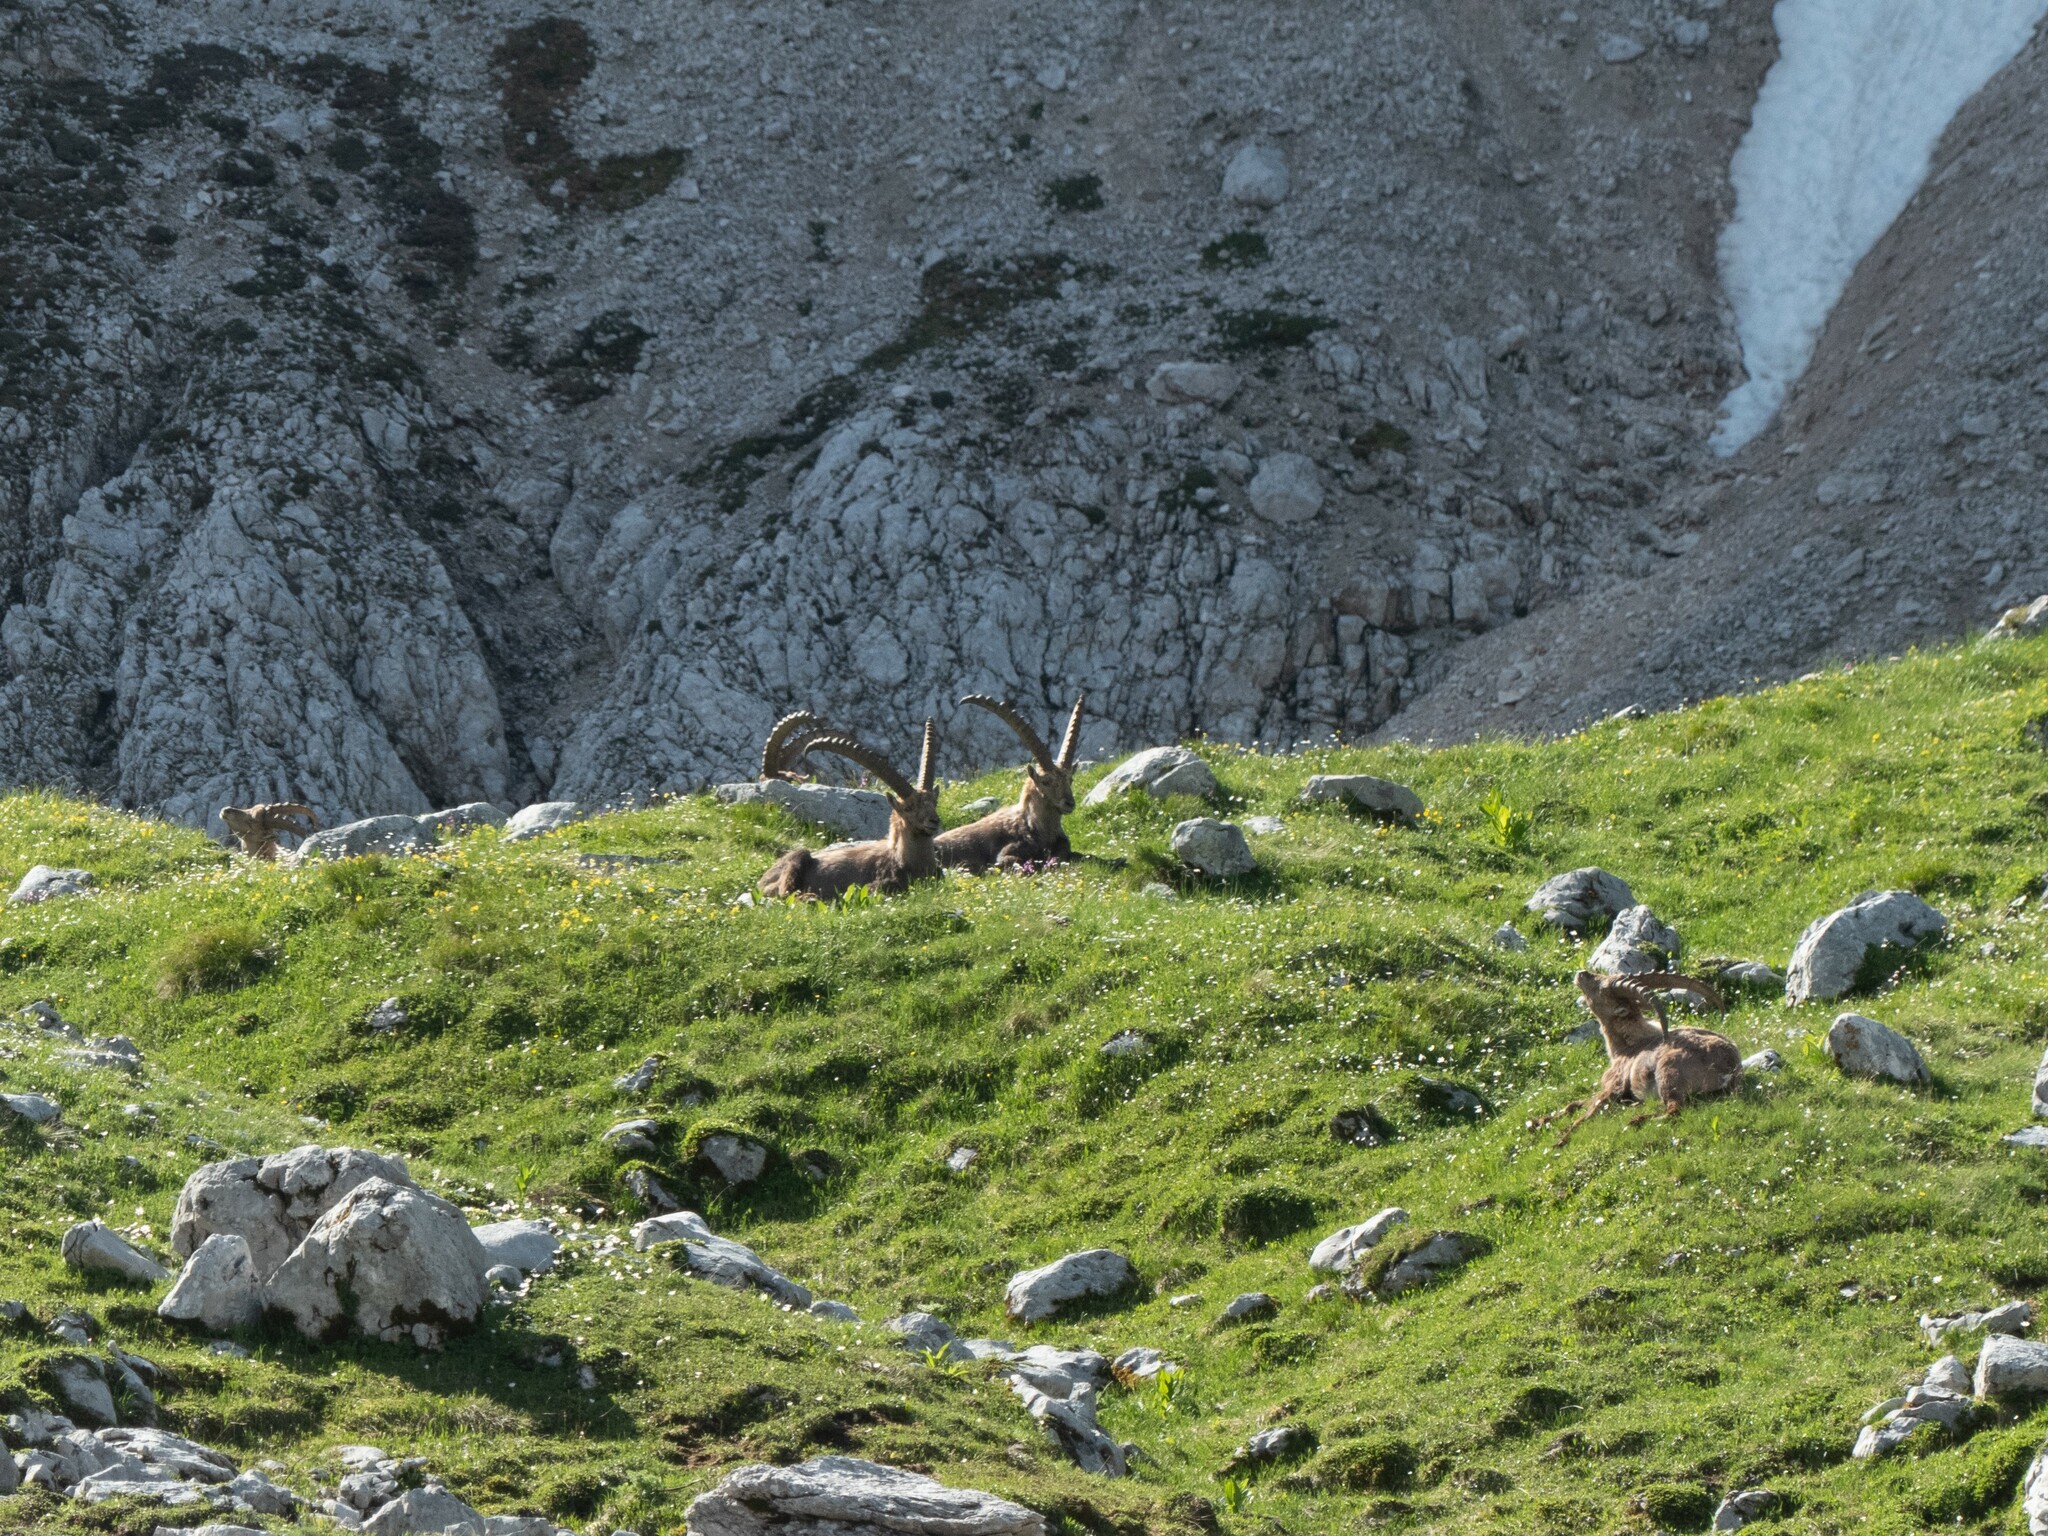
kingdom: Animalia
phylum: Chordata
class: Mammalia
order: Artiodactyla
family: Bovidae
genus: Capra
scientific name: Capra ibex
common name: Alpine ibex
